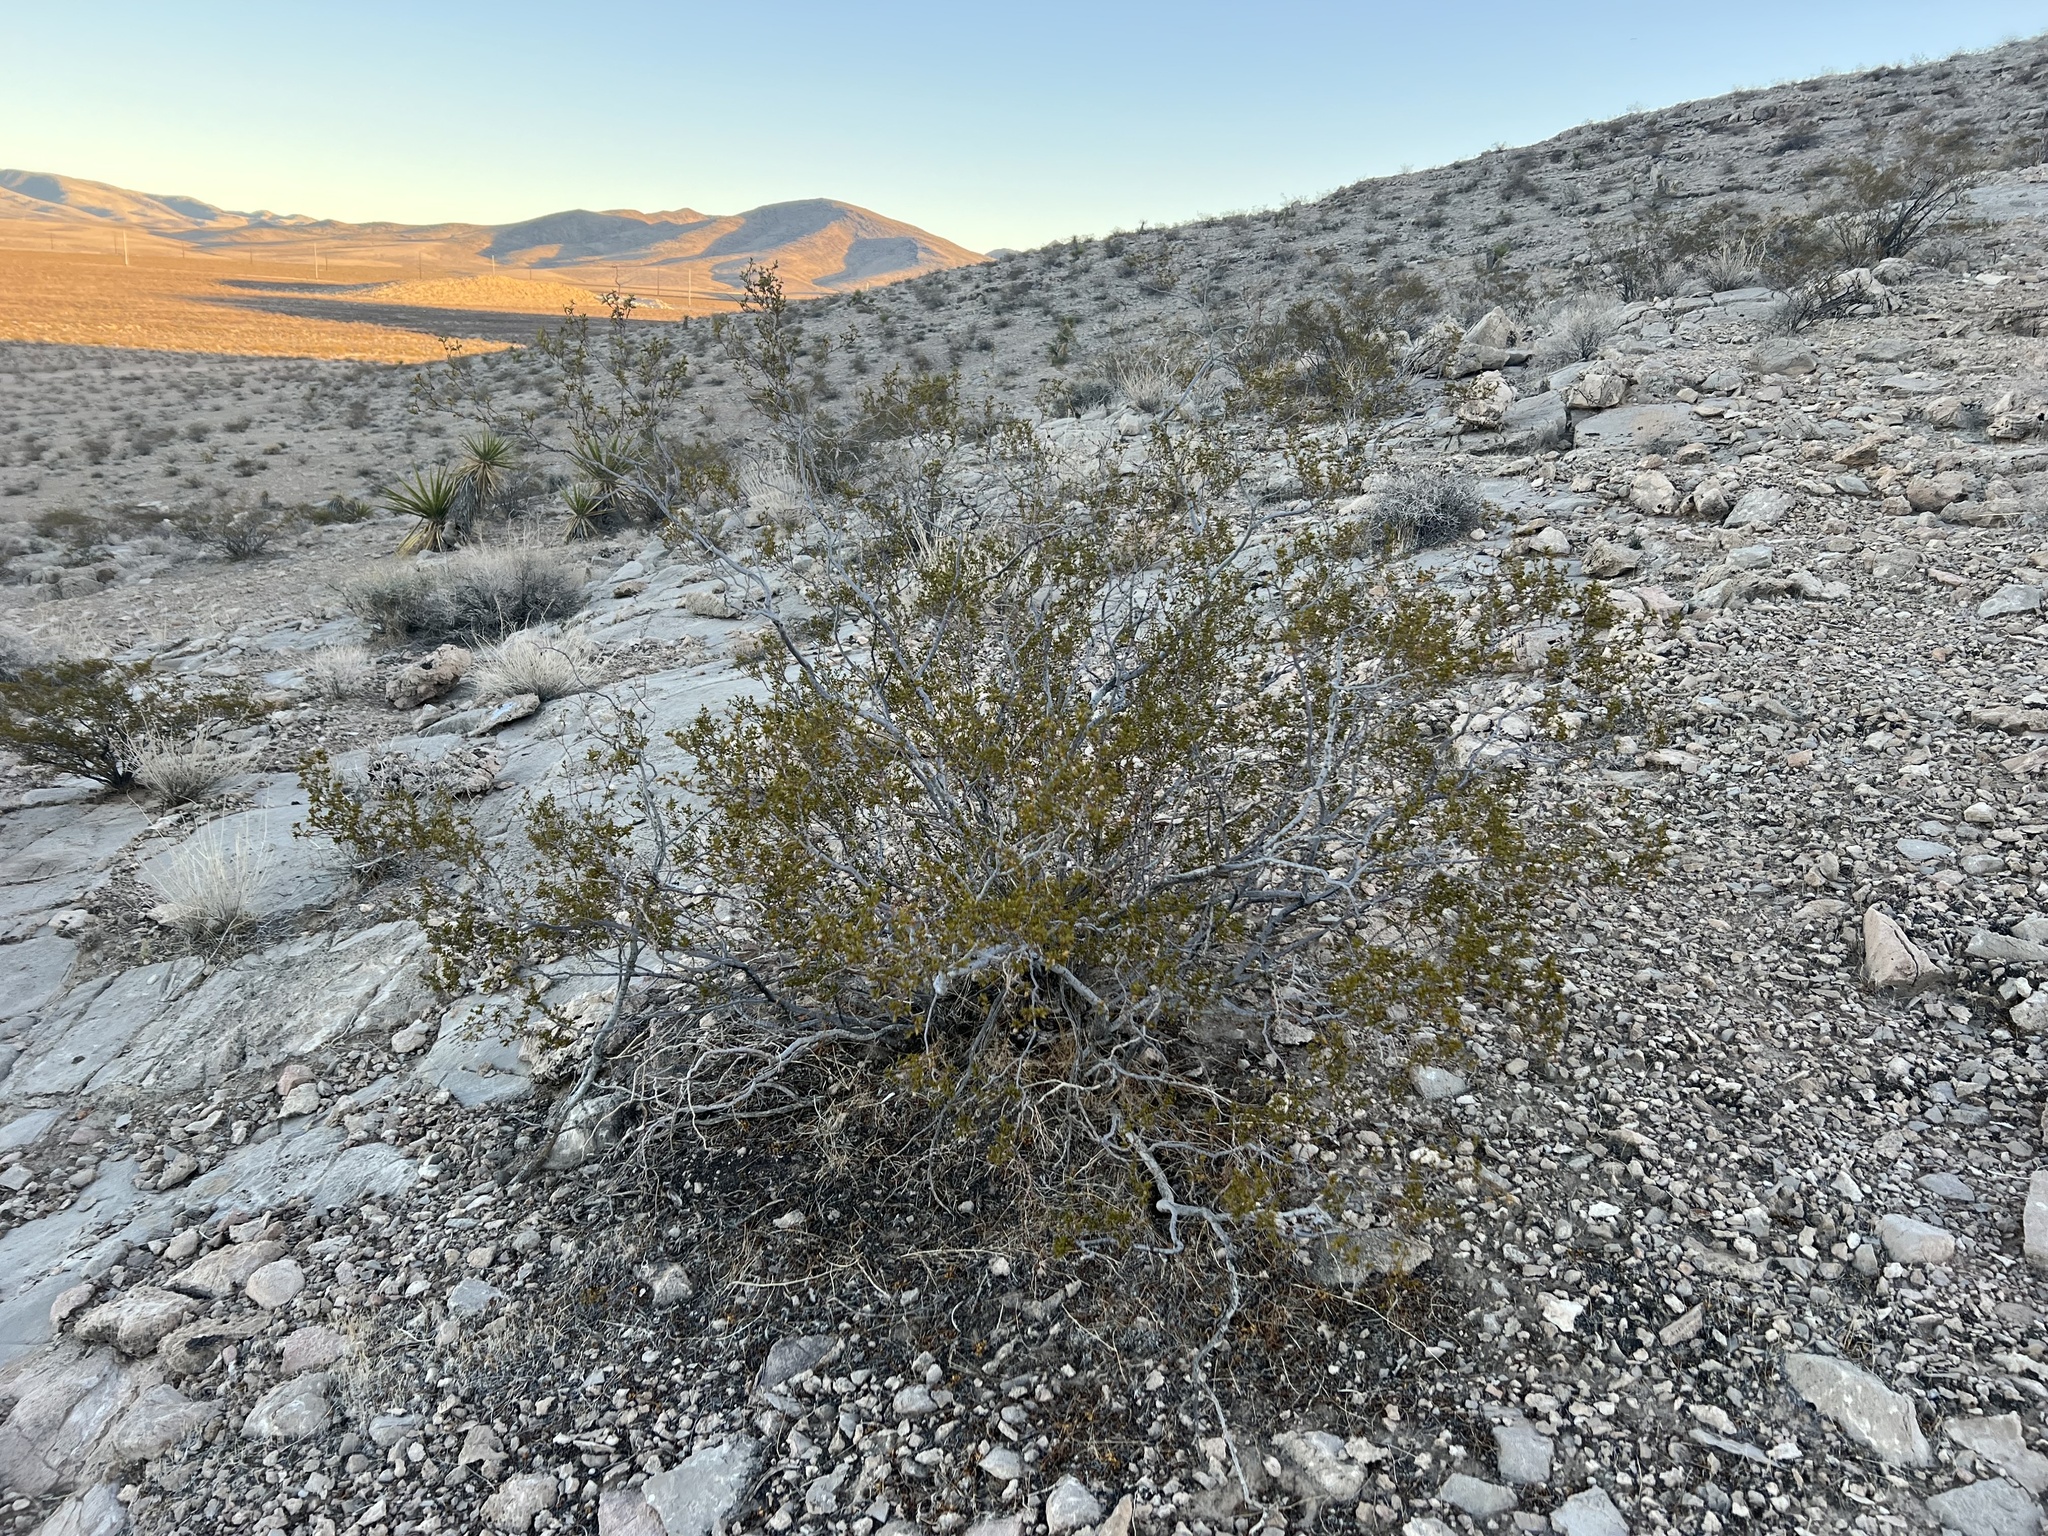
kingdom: Plantae
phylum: Tracheophyta
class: Magnoliopsida
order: Zygophyllales
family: Zygophyllaceae
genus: Larrea
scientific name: Larrea tridentata
